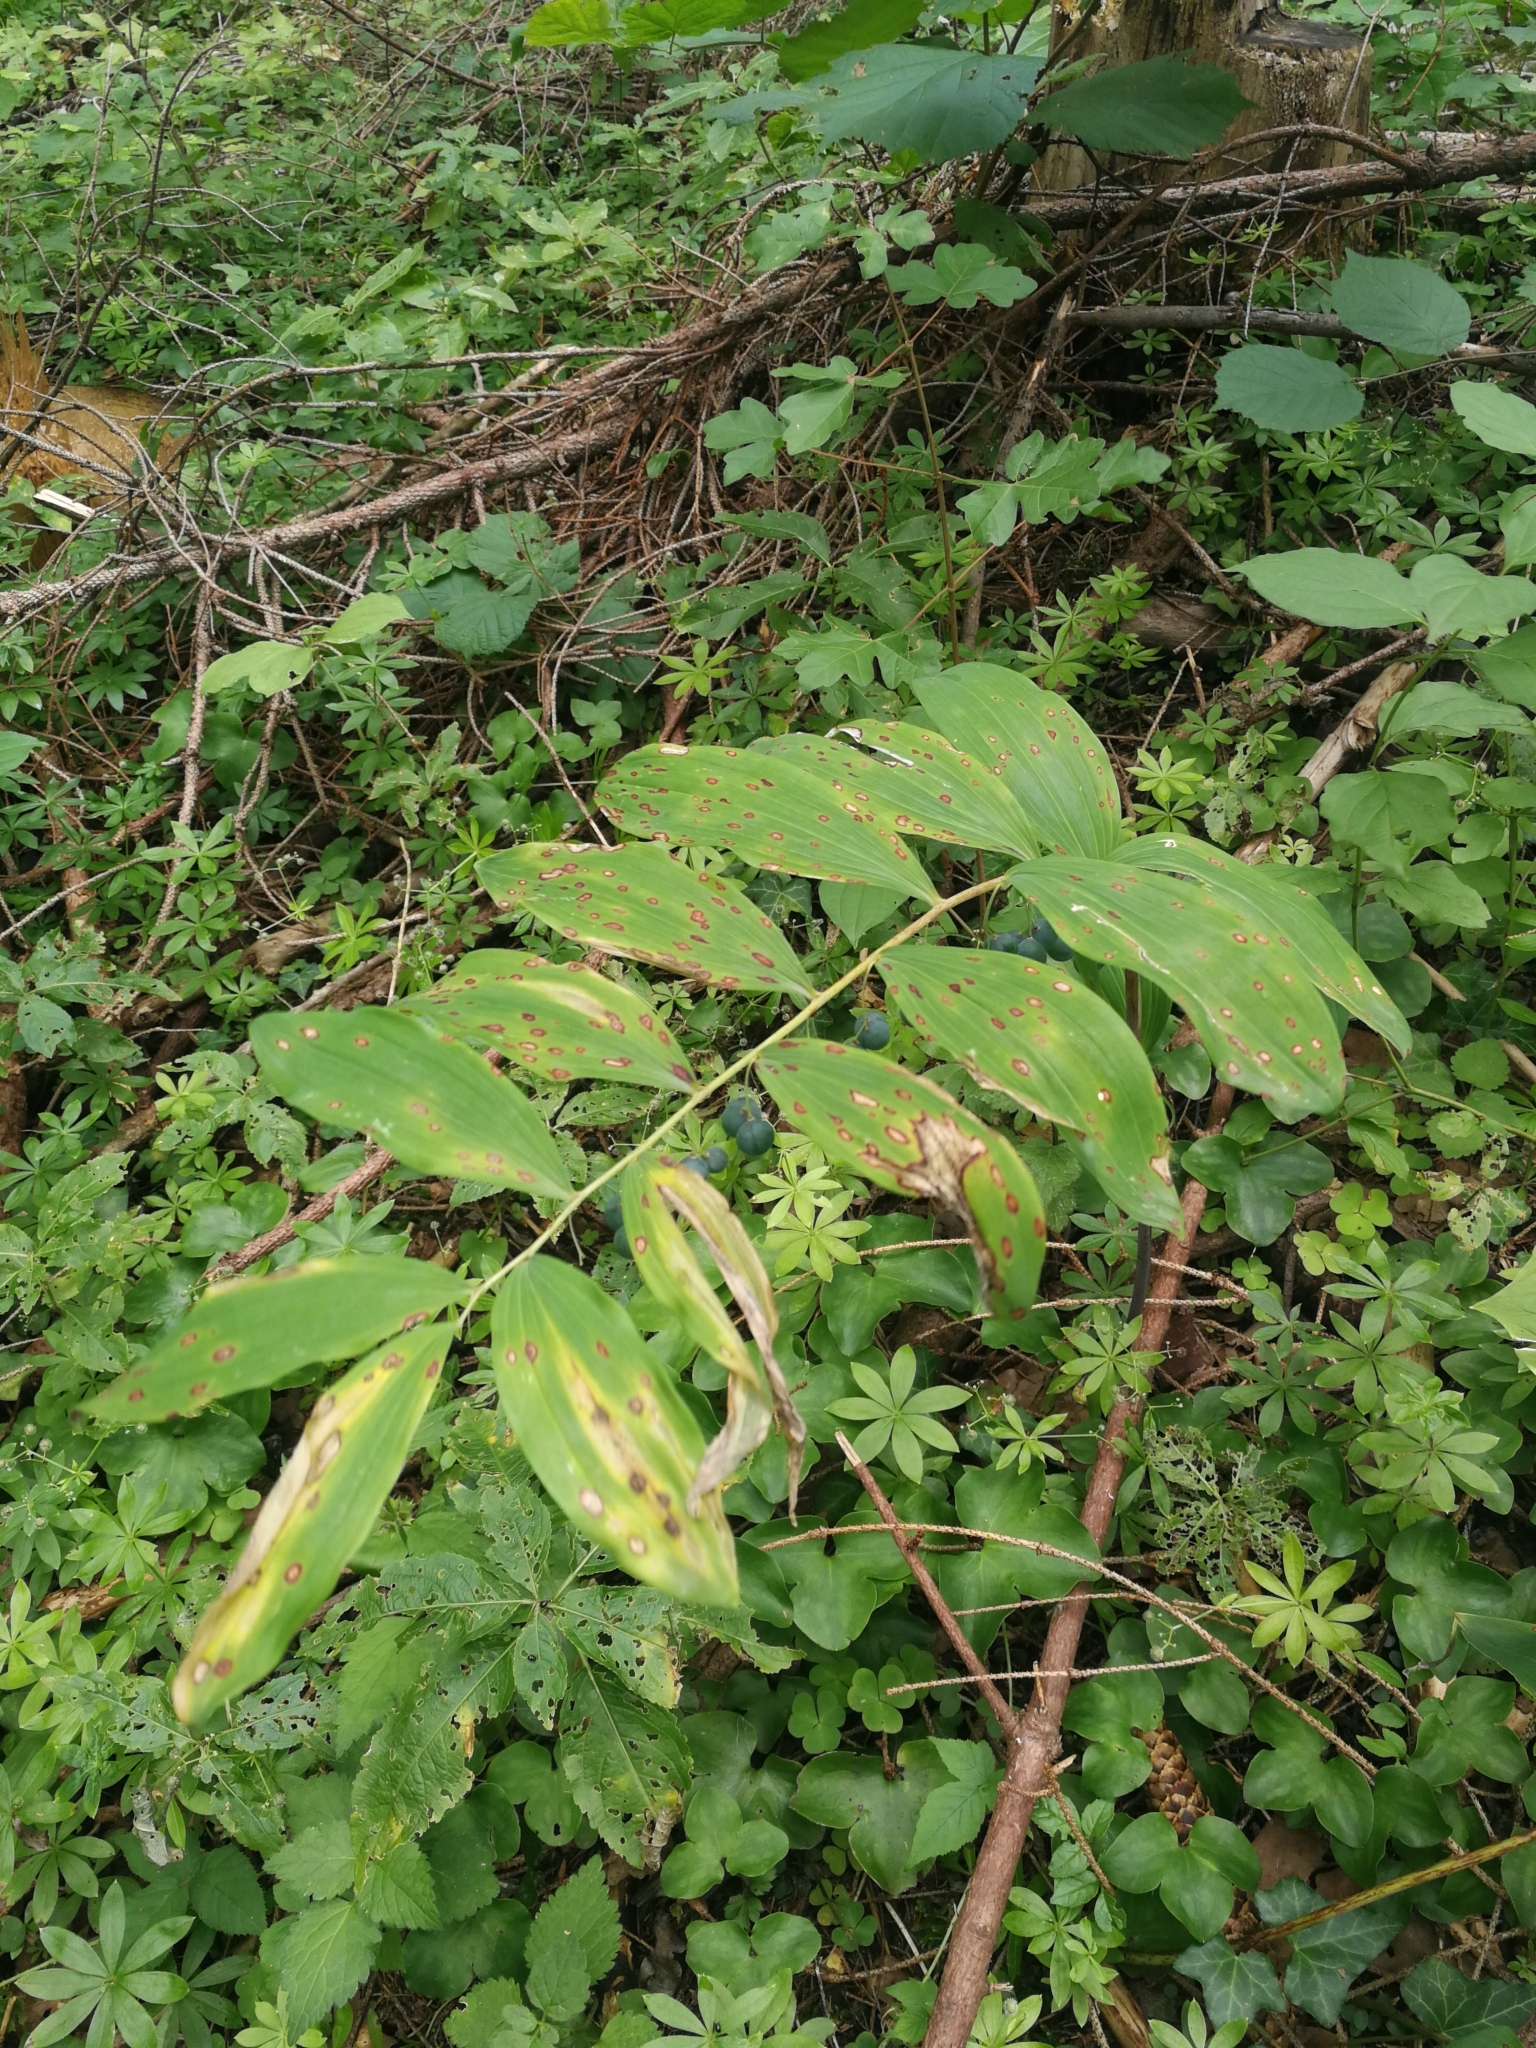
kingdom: Plantae
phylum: Tracheophyta
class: Liliopsida
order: Asparagales
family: Asparagaceae
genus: Polygonatum
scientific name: Polygonatum multiflorum
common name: Solomon's-seal
